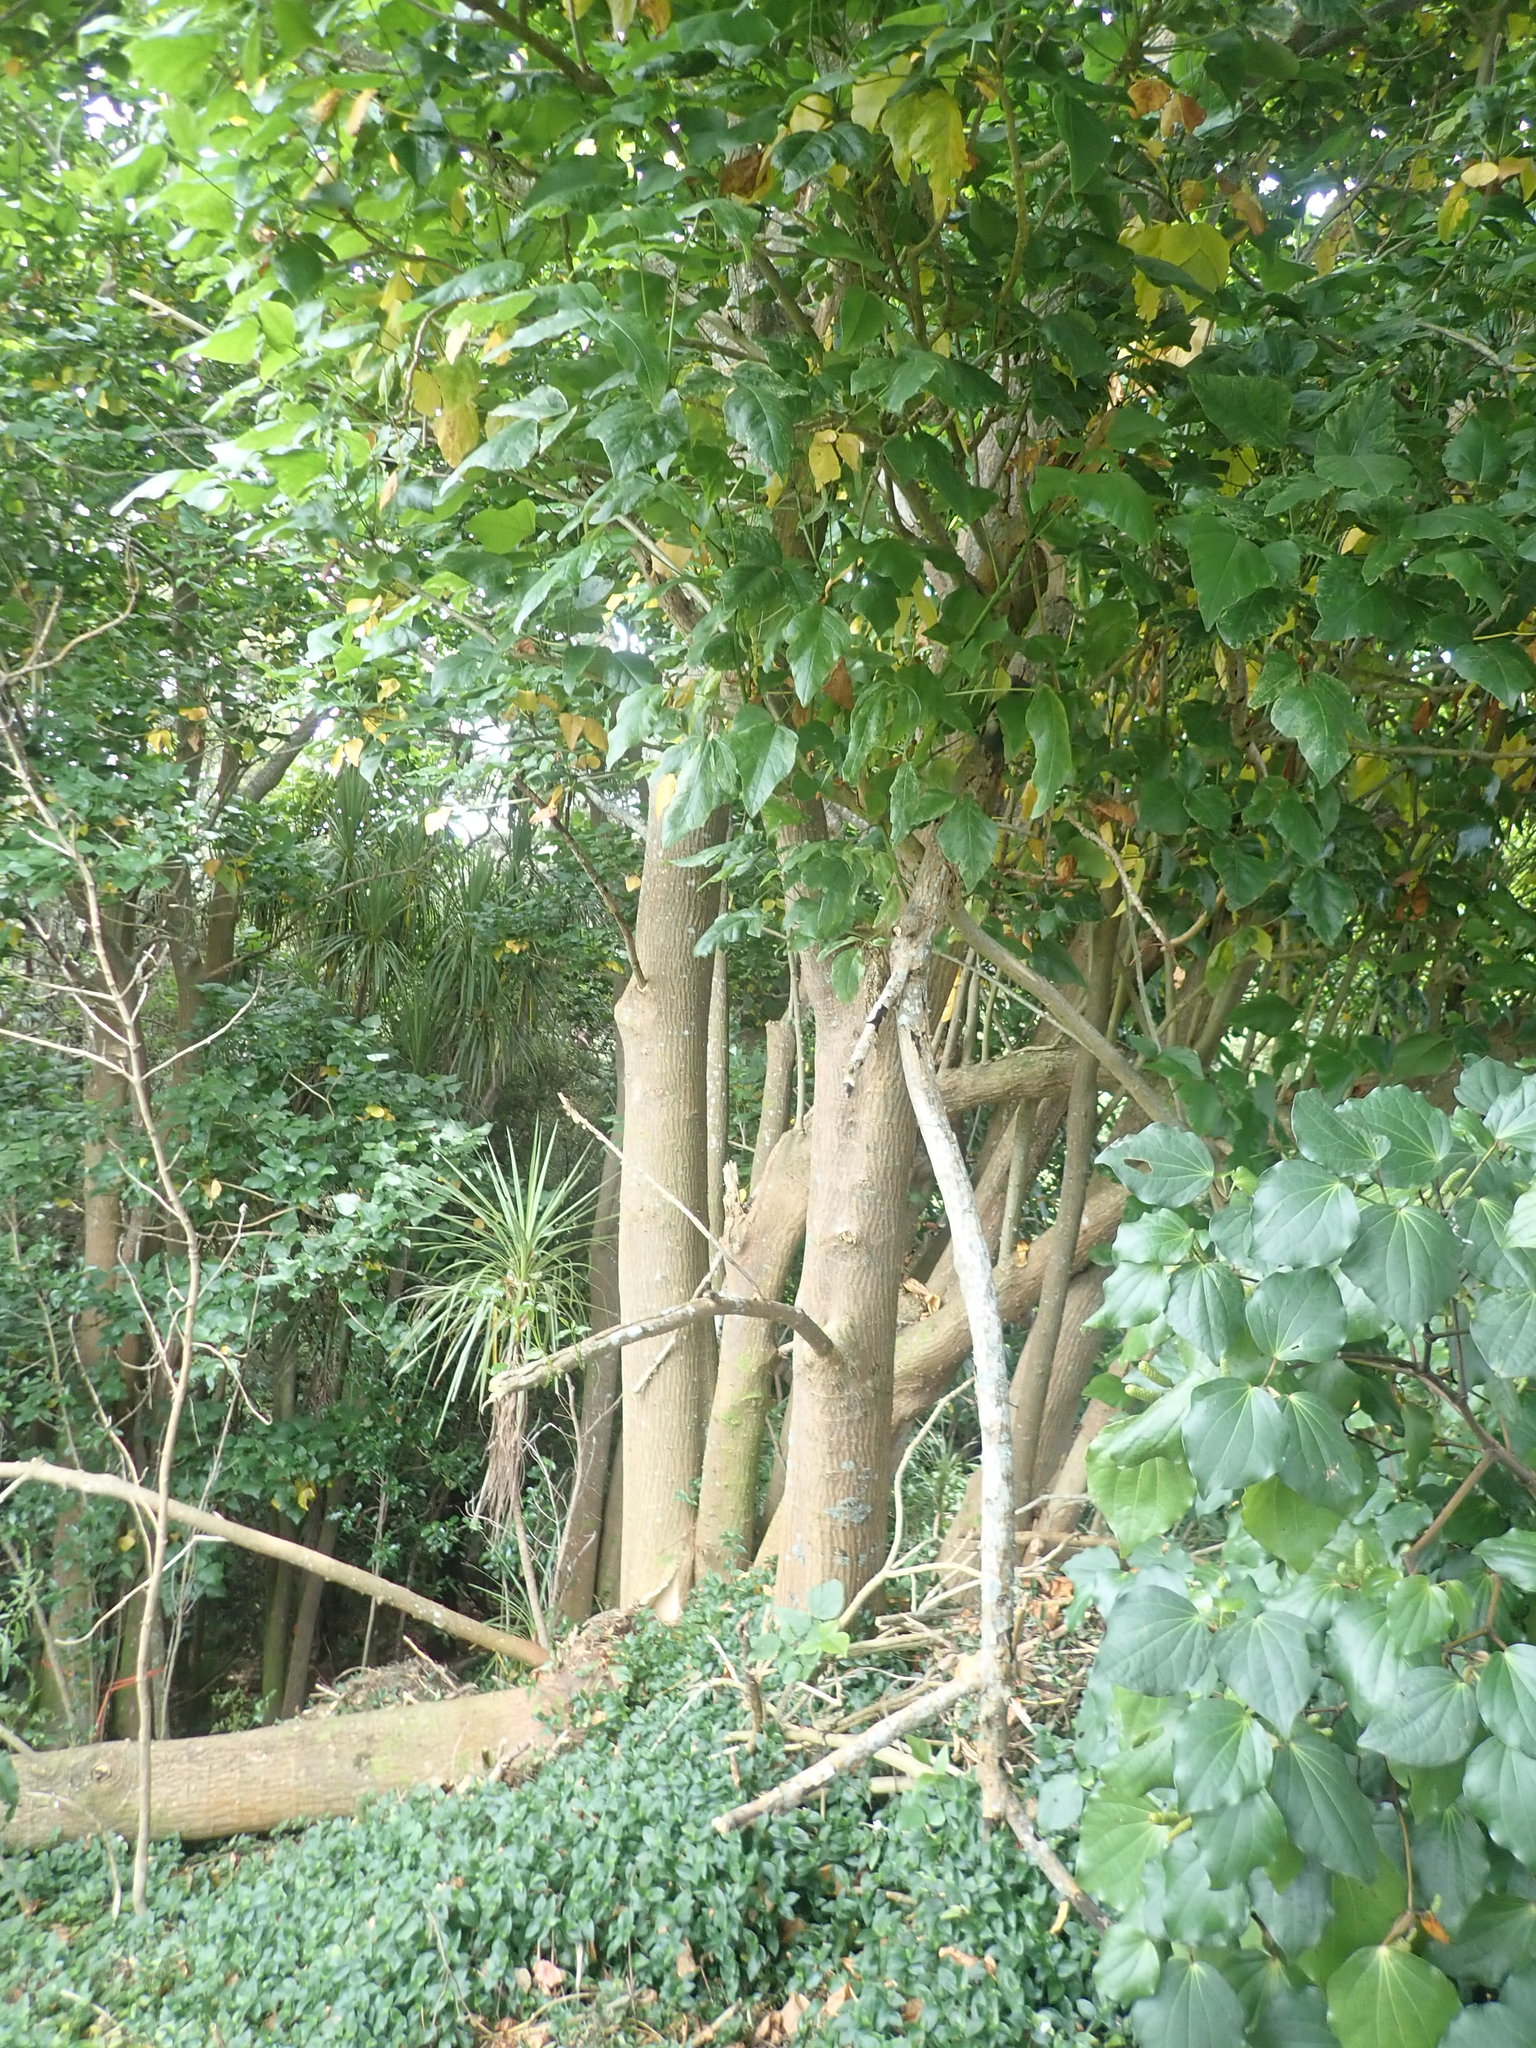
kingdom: Plantae
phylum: Tracheophyta
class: Magnoliopsida
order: Fabales
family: Fabaceae
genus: Erythrina
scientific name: Erythrina sykesii
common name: Coraltree
